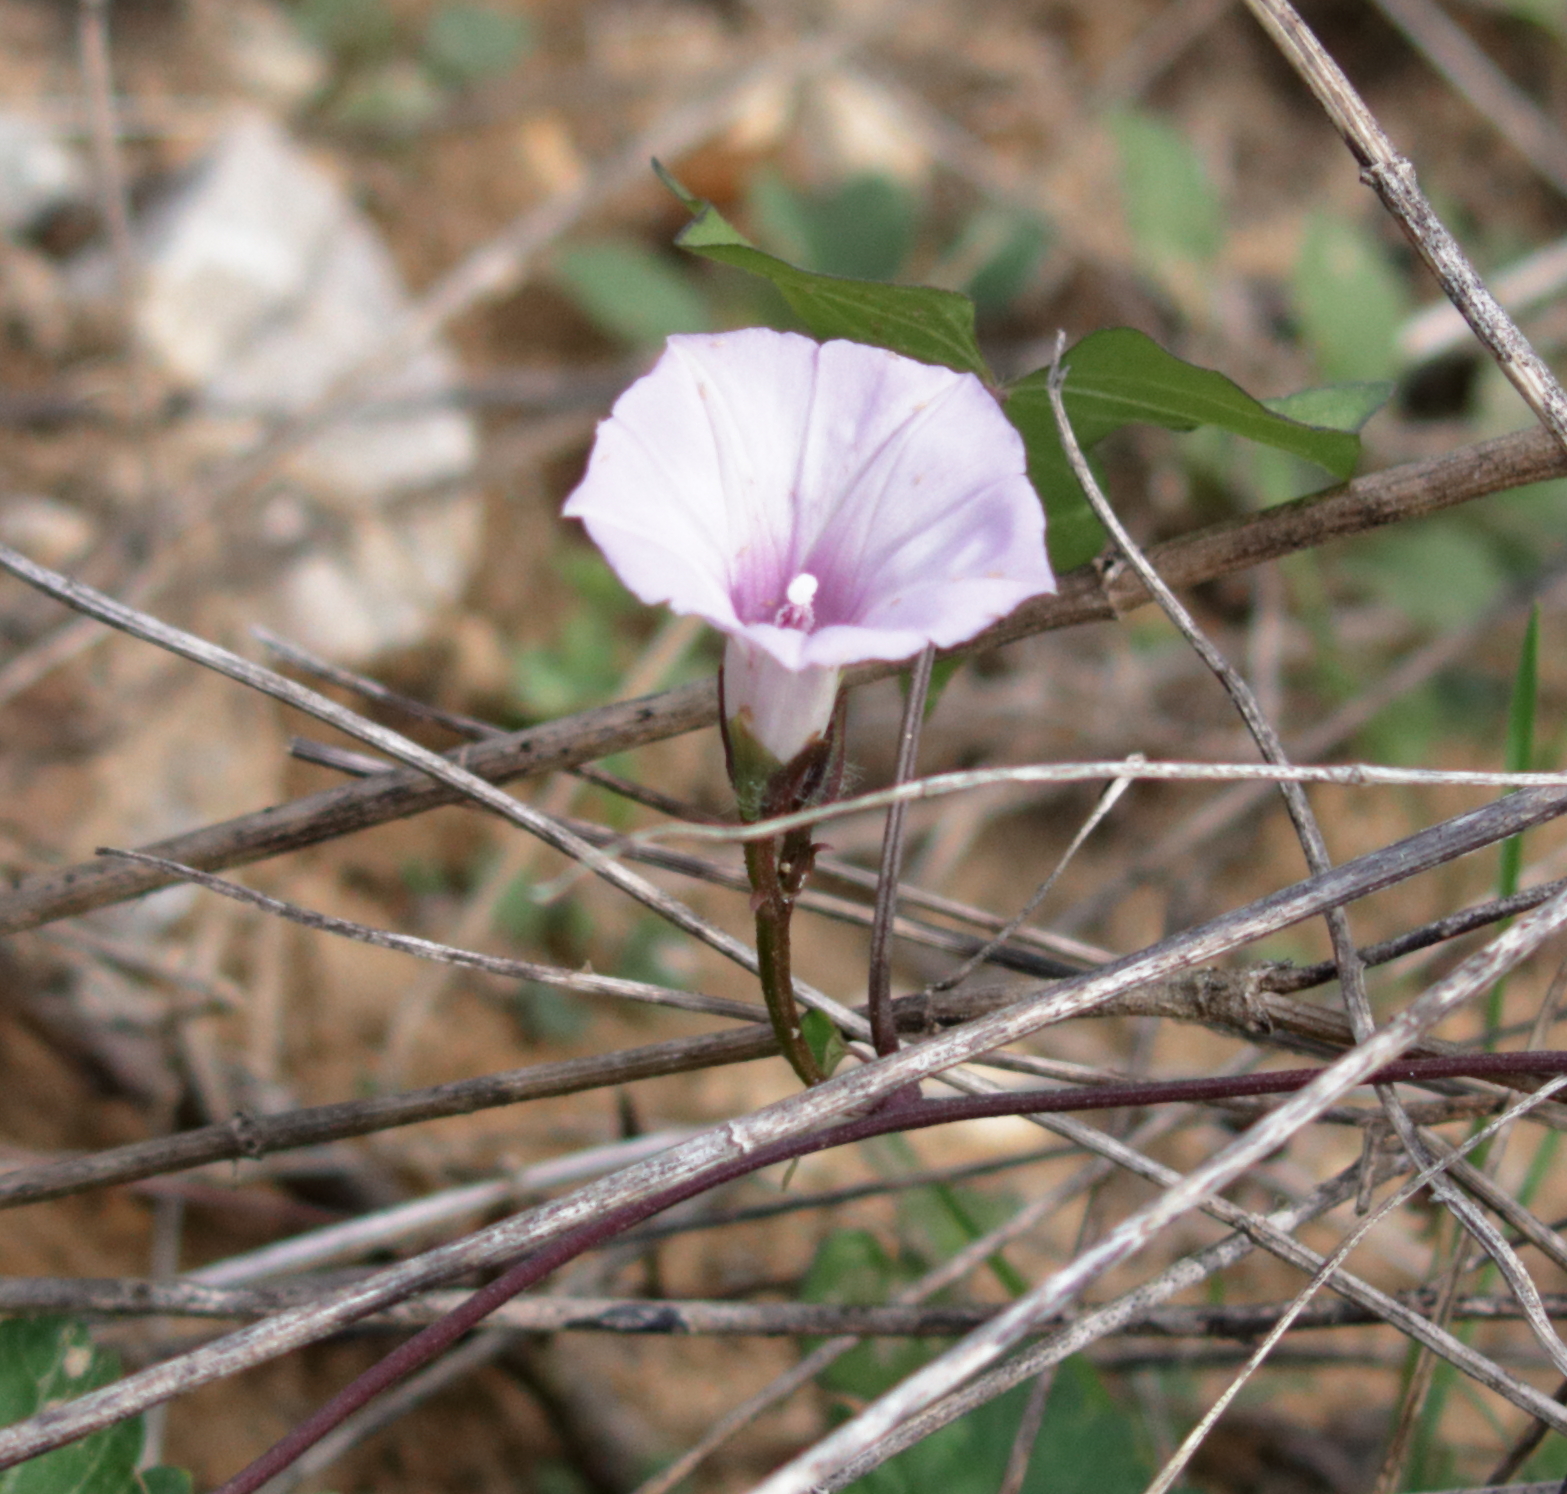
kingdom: Plantae
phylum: Tracheophyta
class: Magnoliopsida
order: Solanales
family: Convolvulaceae
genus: Ipomoea
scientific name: Ipomoea cordatotriloba
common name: Cotton morning glory
